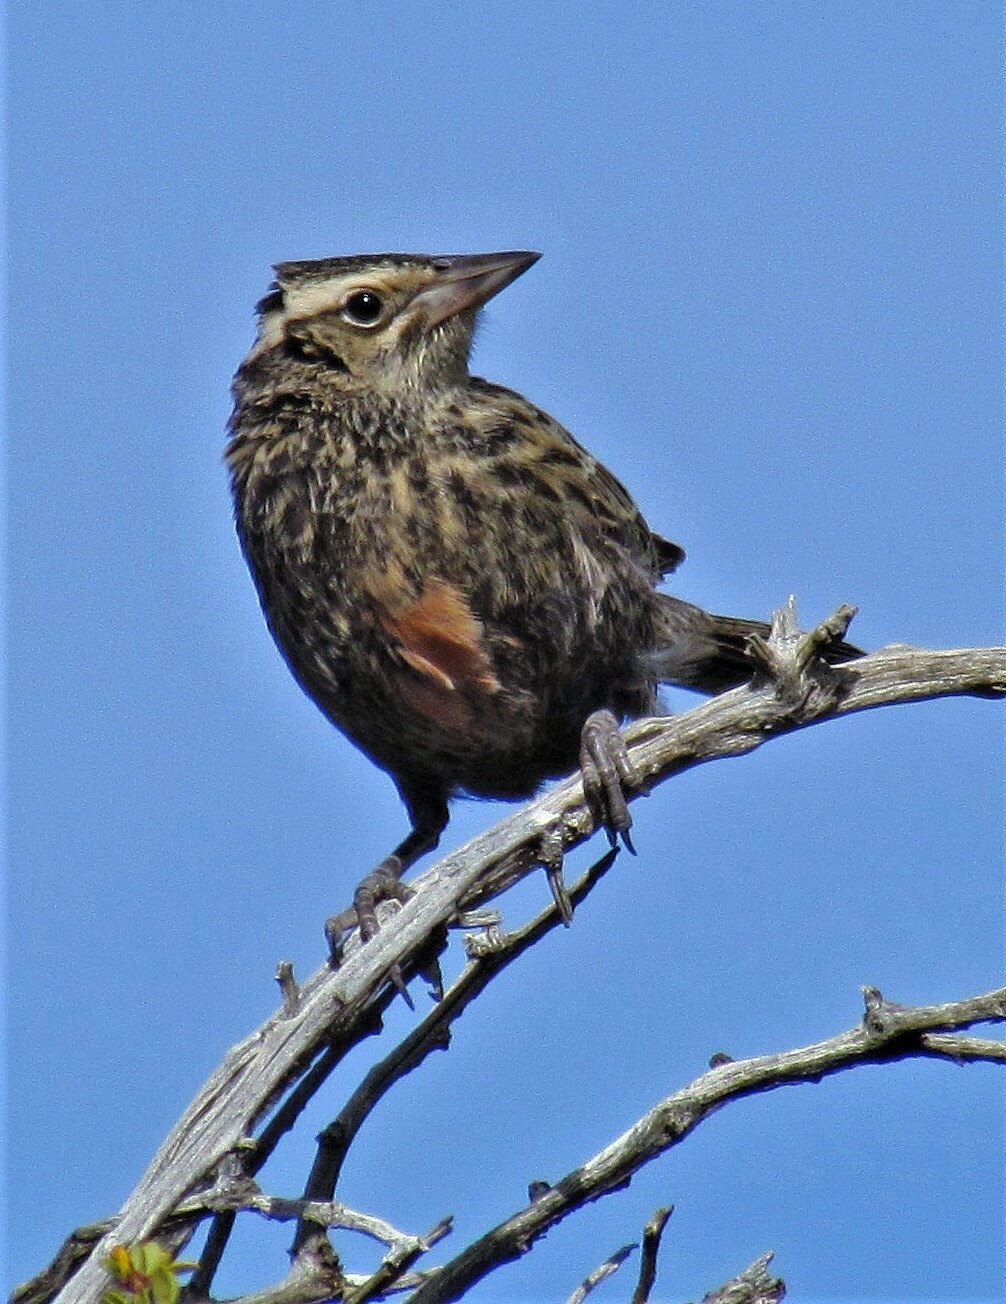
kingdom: Animalia
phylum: Chordata
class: Aves
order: Passeriformes
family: Icteridae
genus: Sturnella
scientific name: Sturnella loyca
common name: Long-tailed meadowlark
